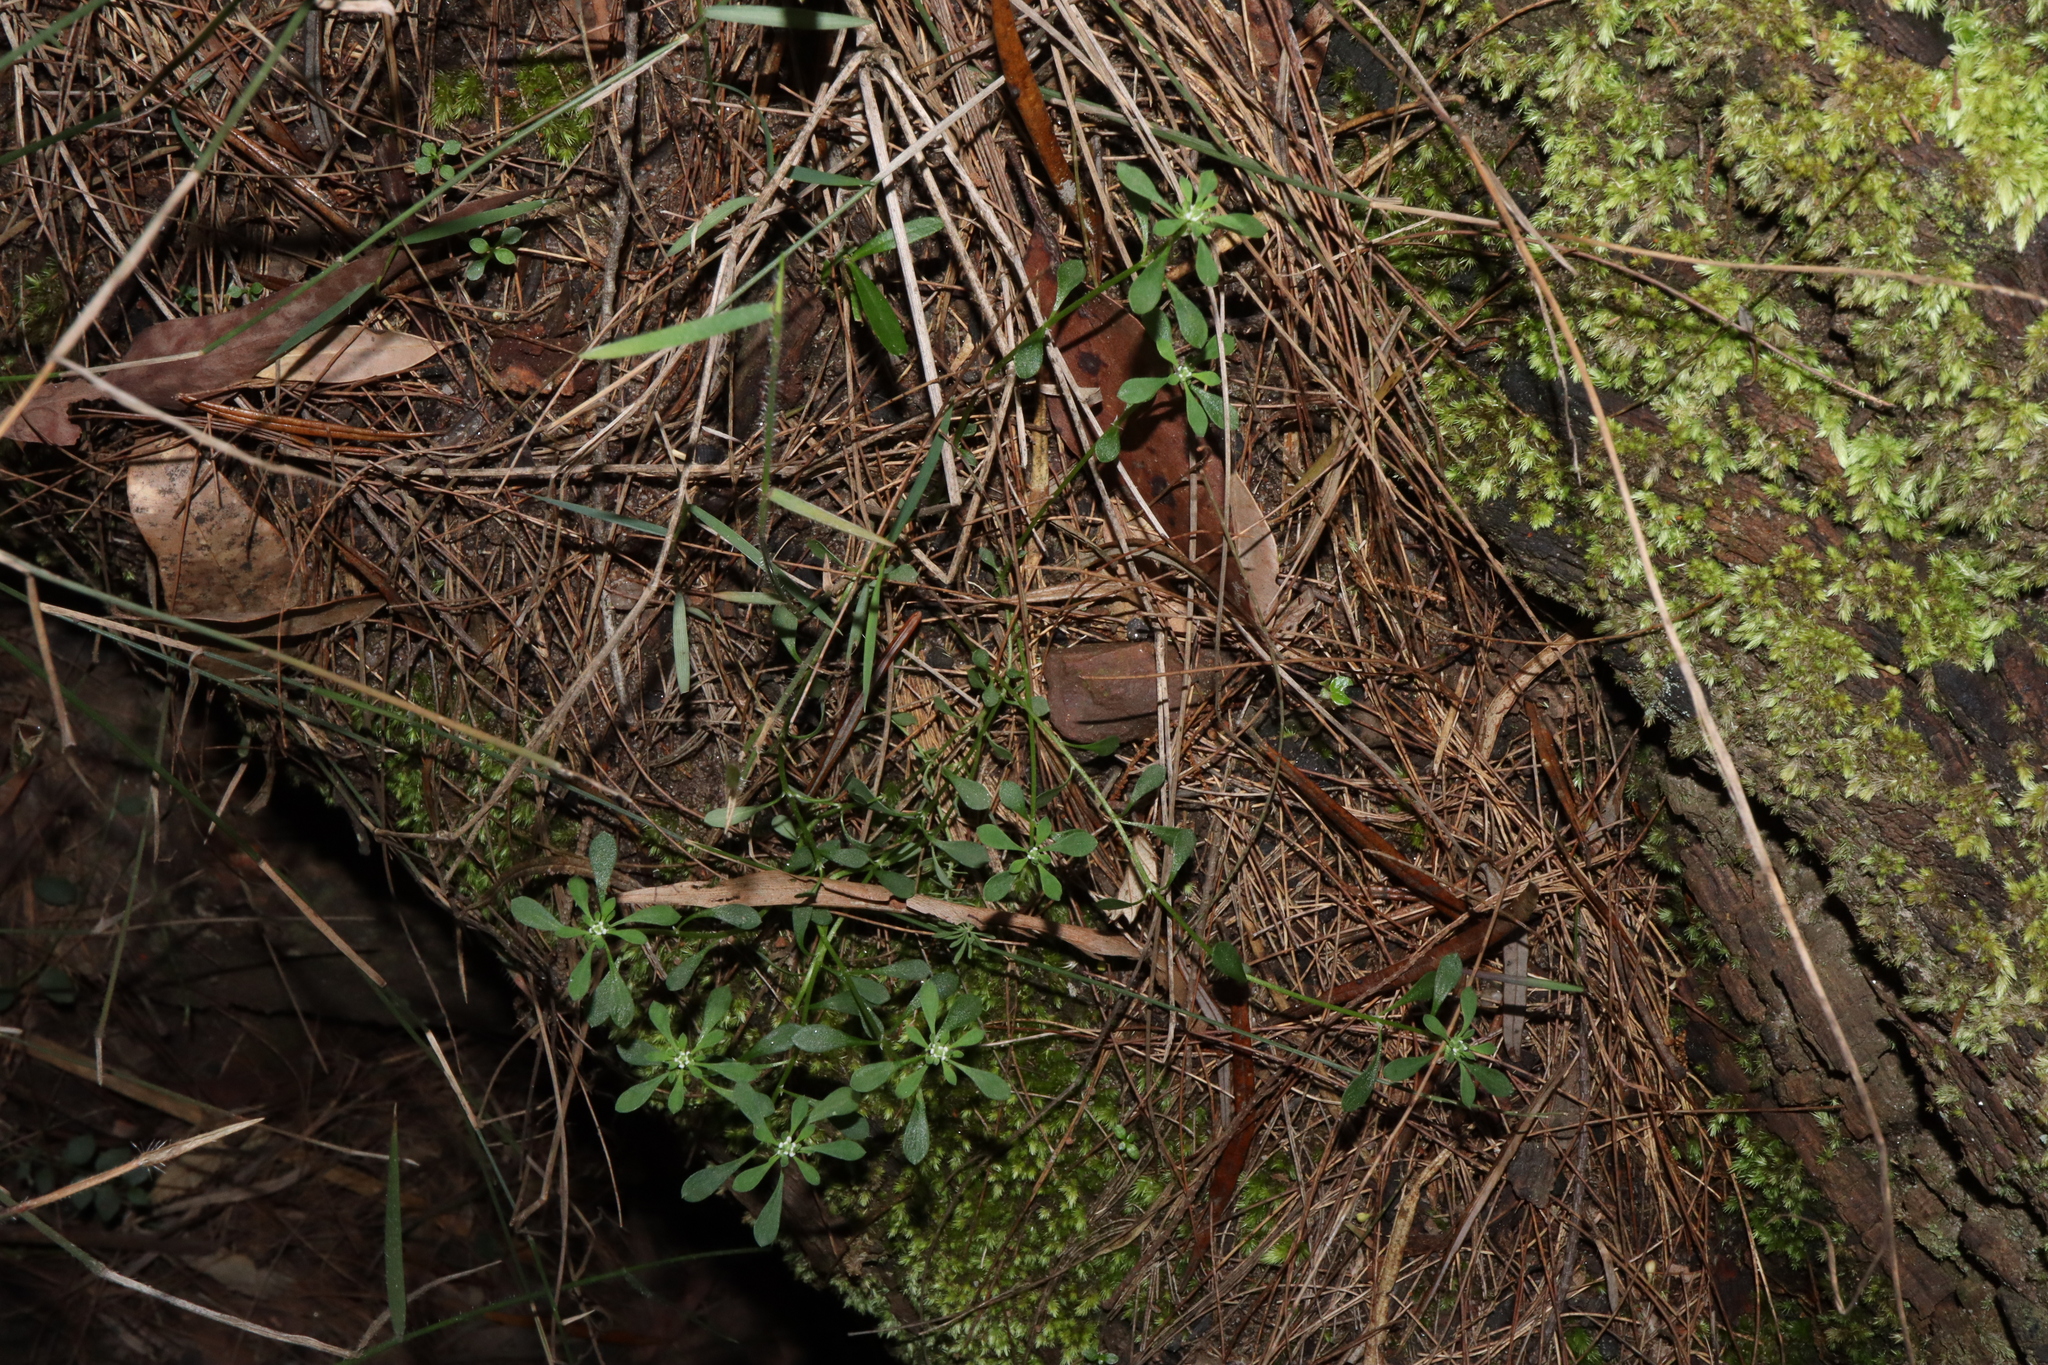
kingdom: Plantae
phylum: Tracheophyta
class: Magnoliopsida
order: Malpighiales
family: Phyllanthaceae
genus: Poranthera
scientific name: Poranthera microphylla
